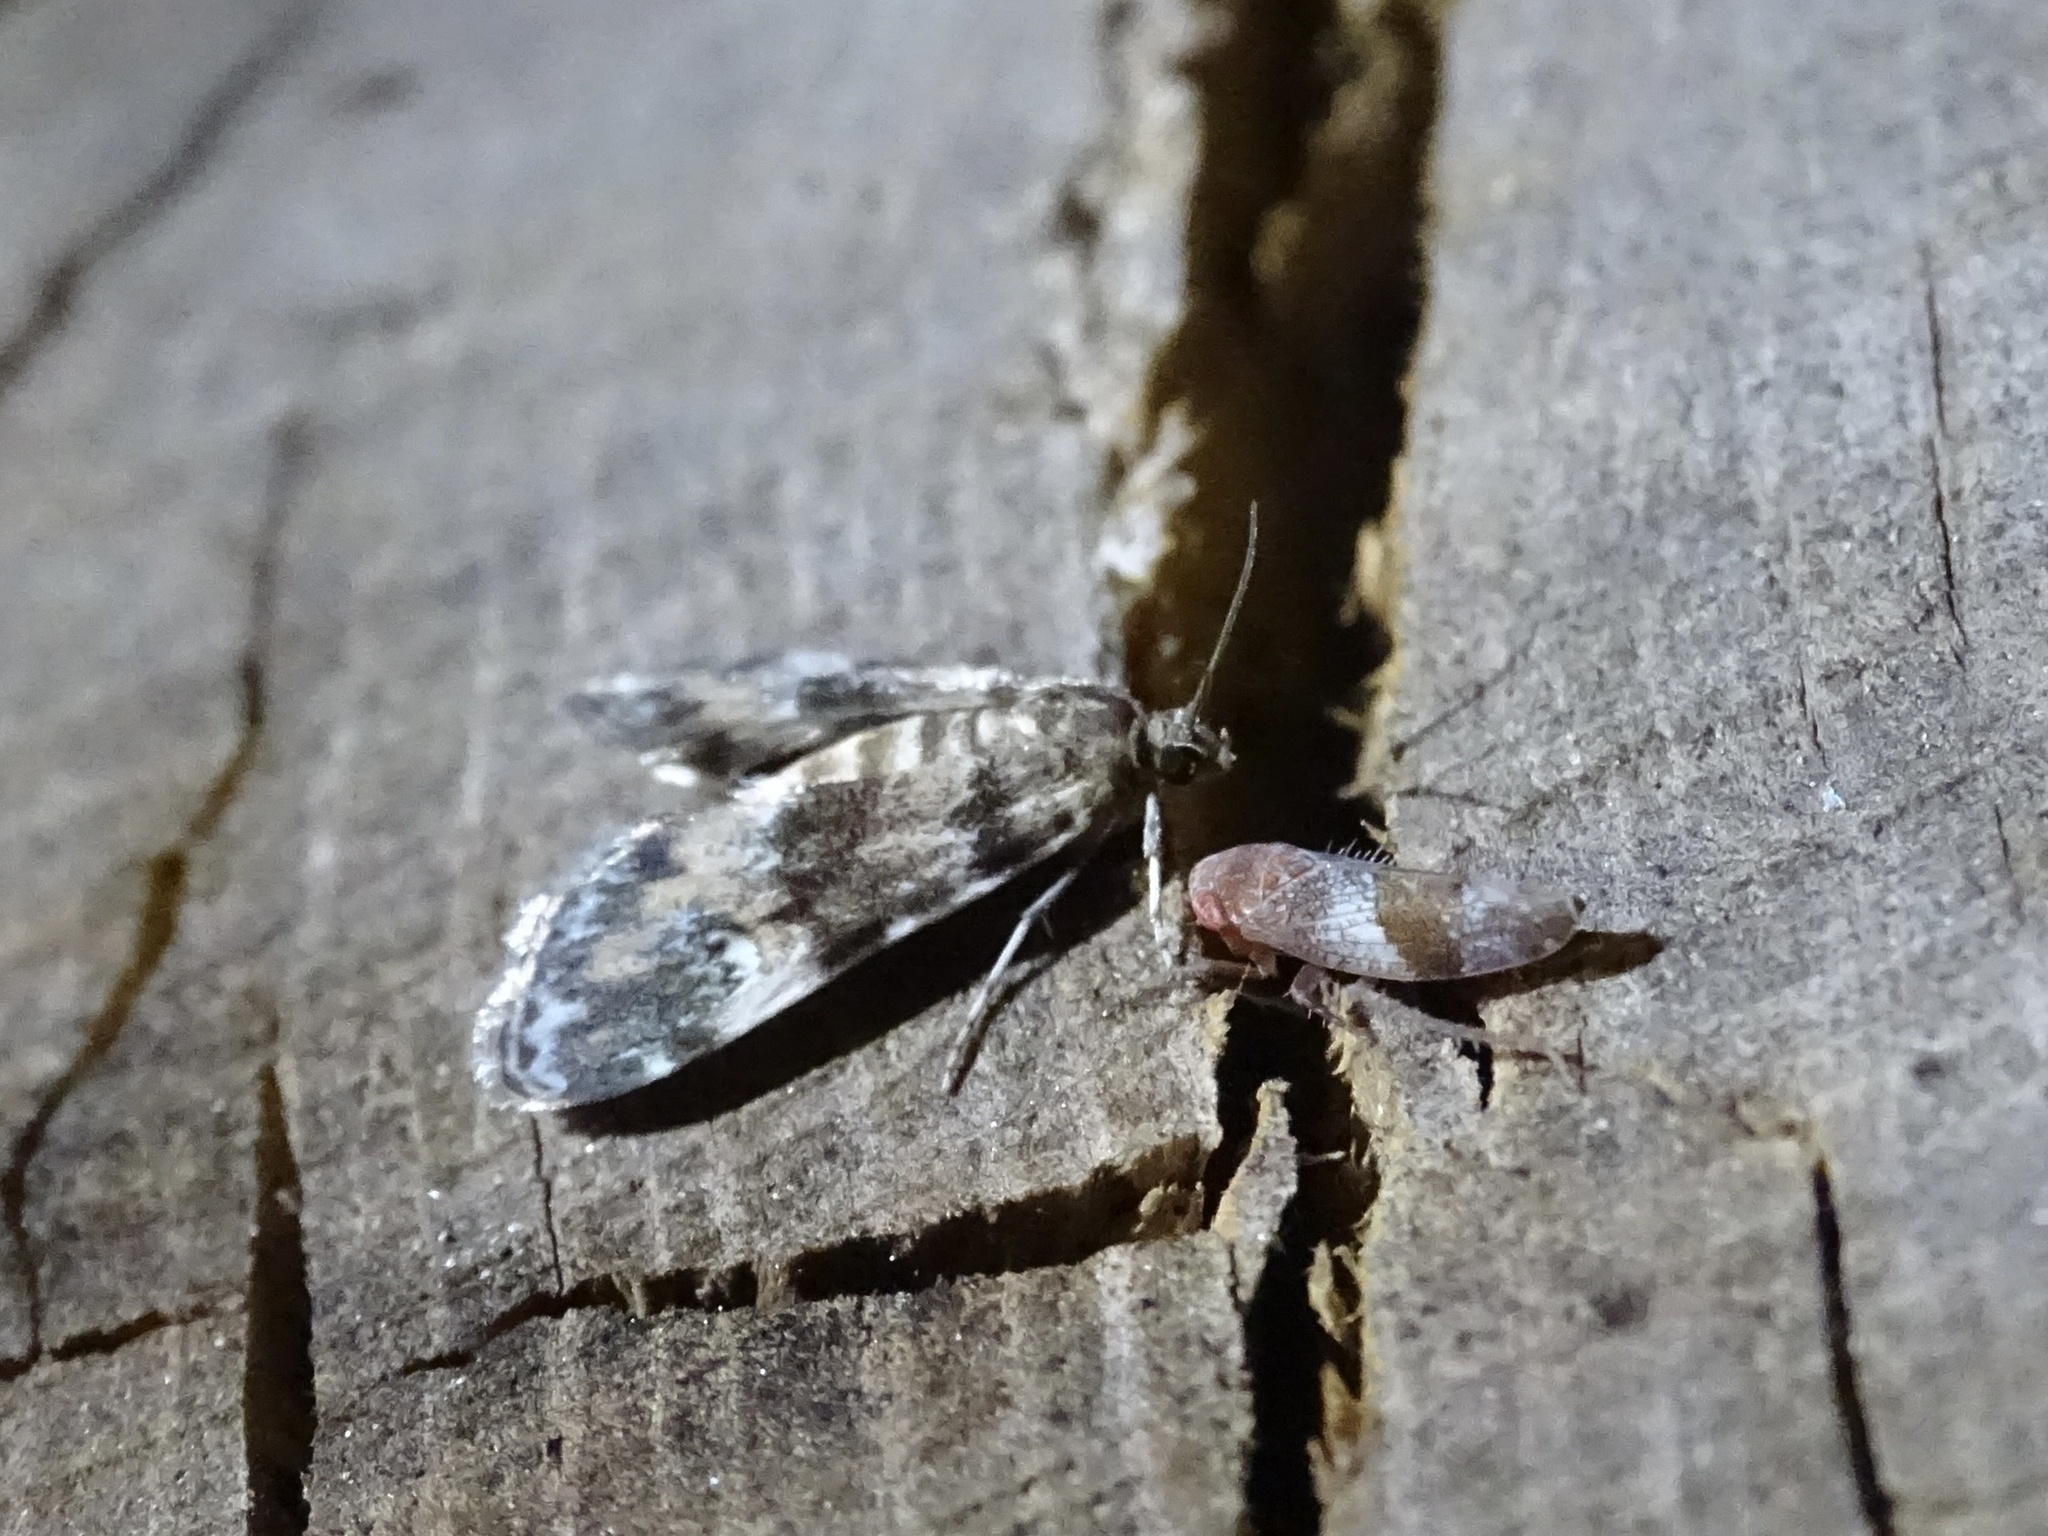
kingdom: Animalia
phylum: Arthropoda
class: Insecta
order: Lepidoptera
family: Crambidae
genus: Elophila
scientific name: Elophila obliteralis
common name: Waterlily leafcutter moth
